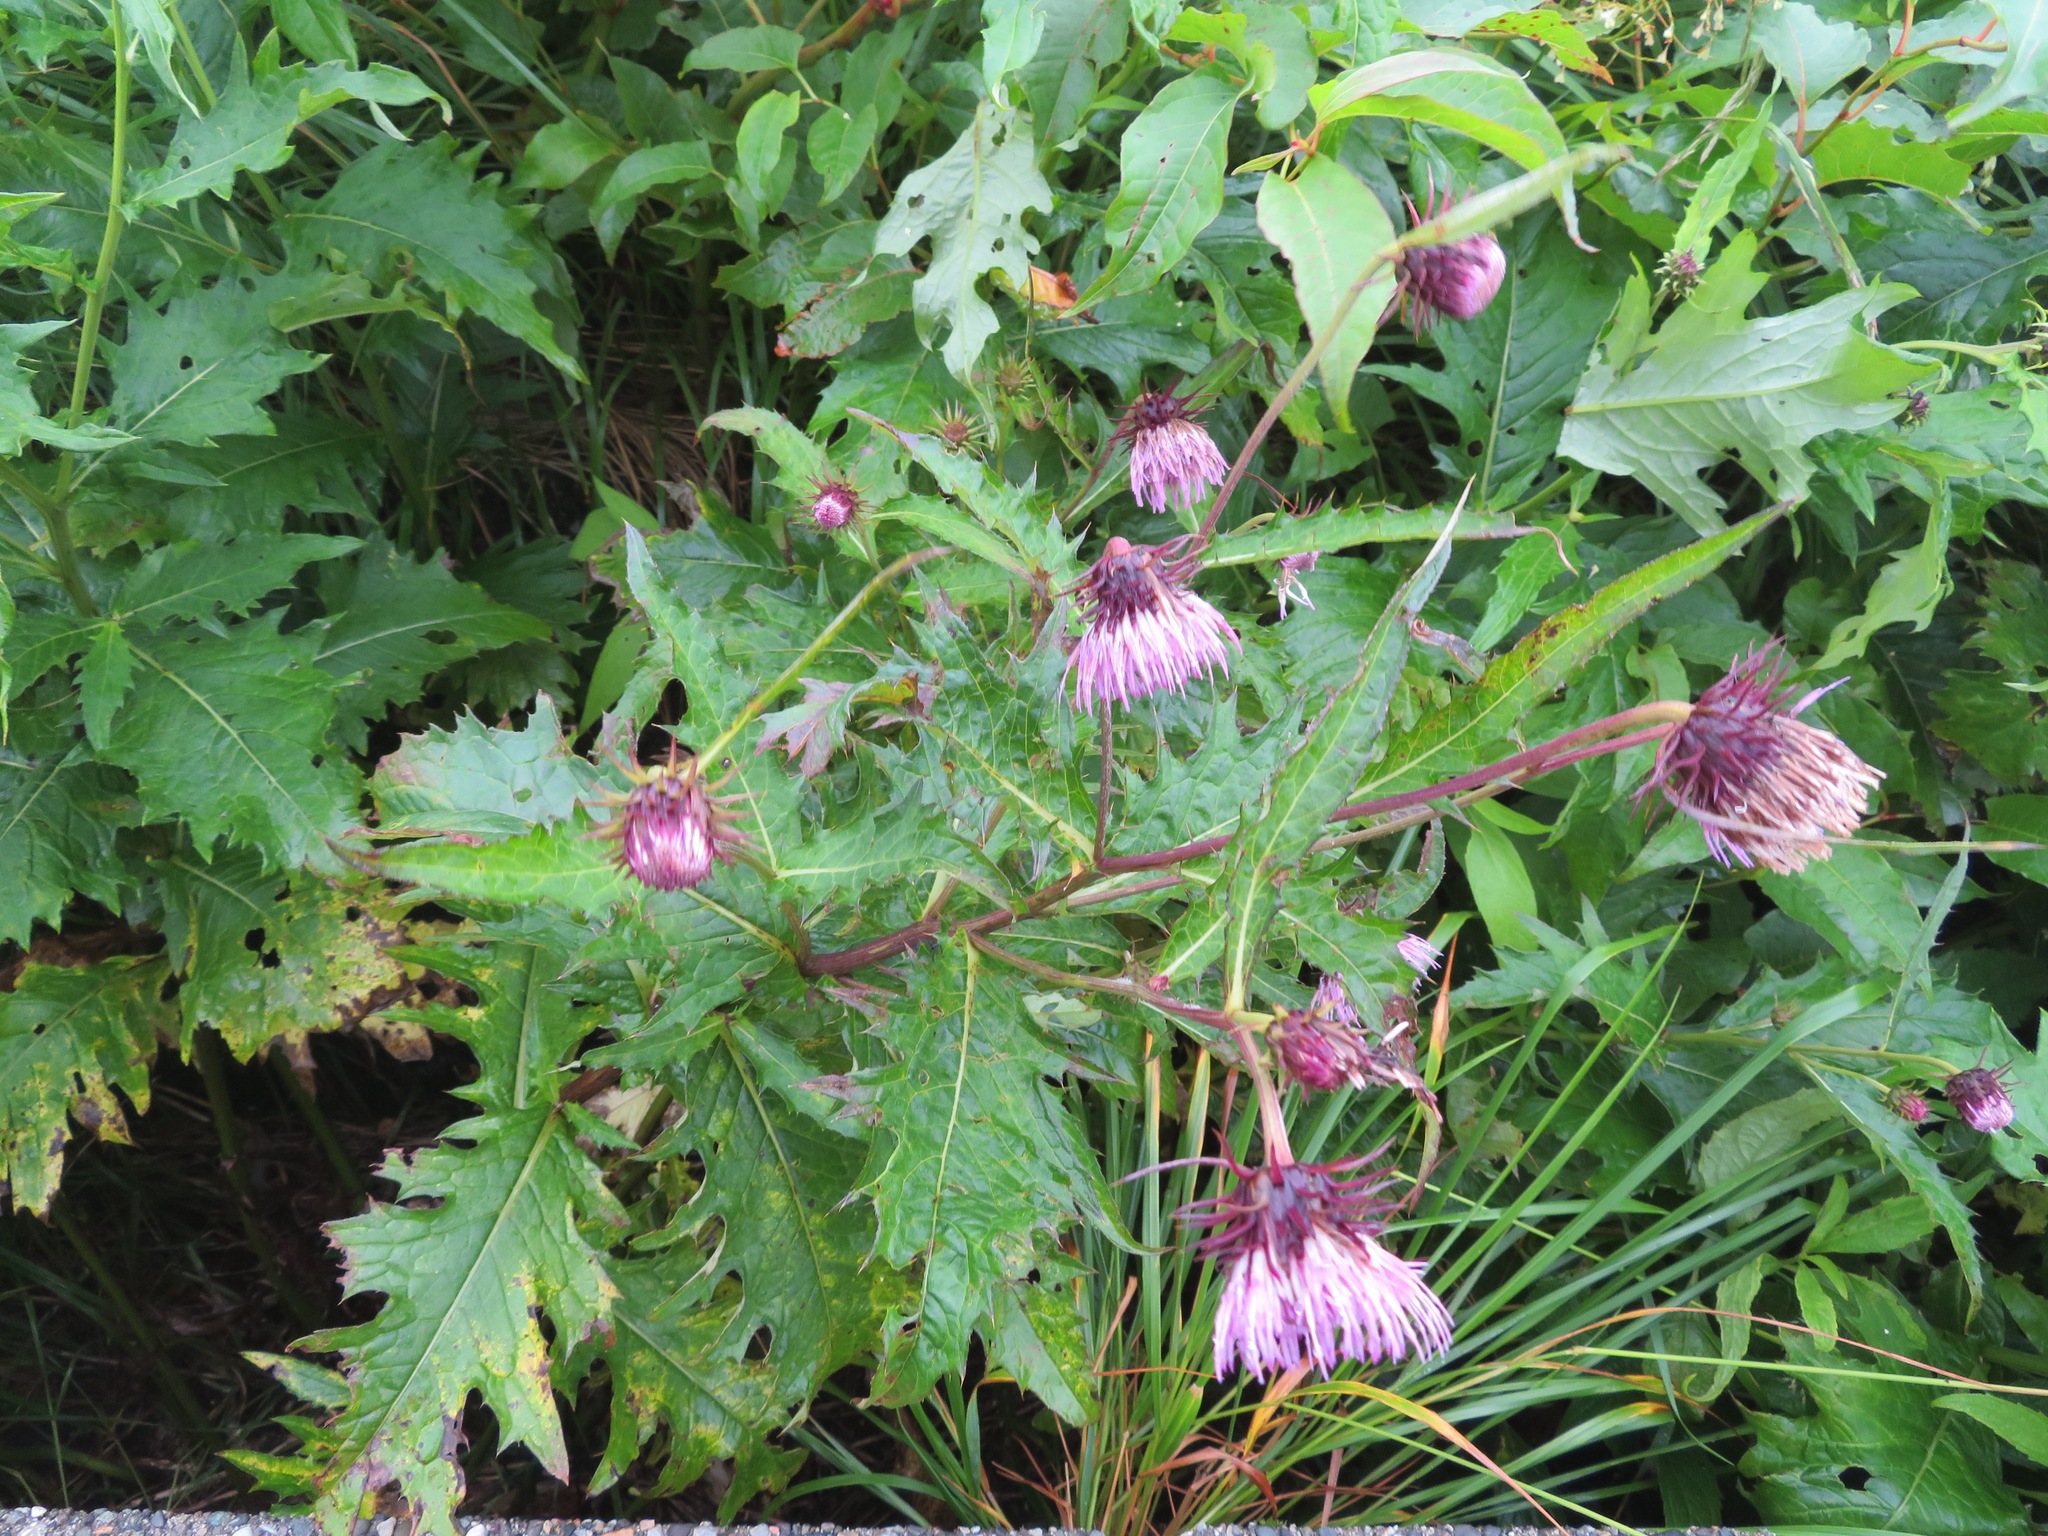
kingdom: Plantae
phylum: Tracheophyta
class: Magnoliopsida
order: Asterales
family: Asteraceae
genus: Cirsium
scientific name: Cirsium otayae
